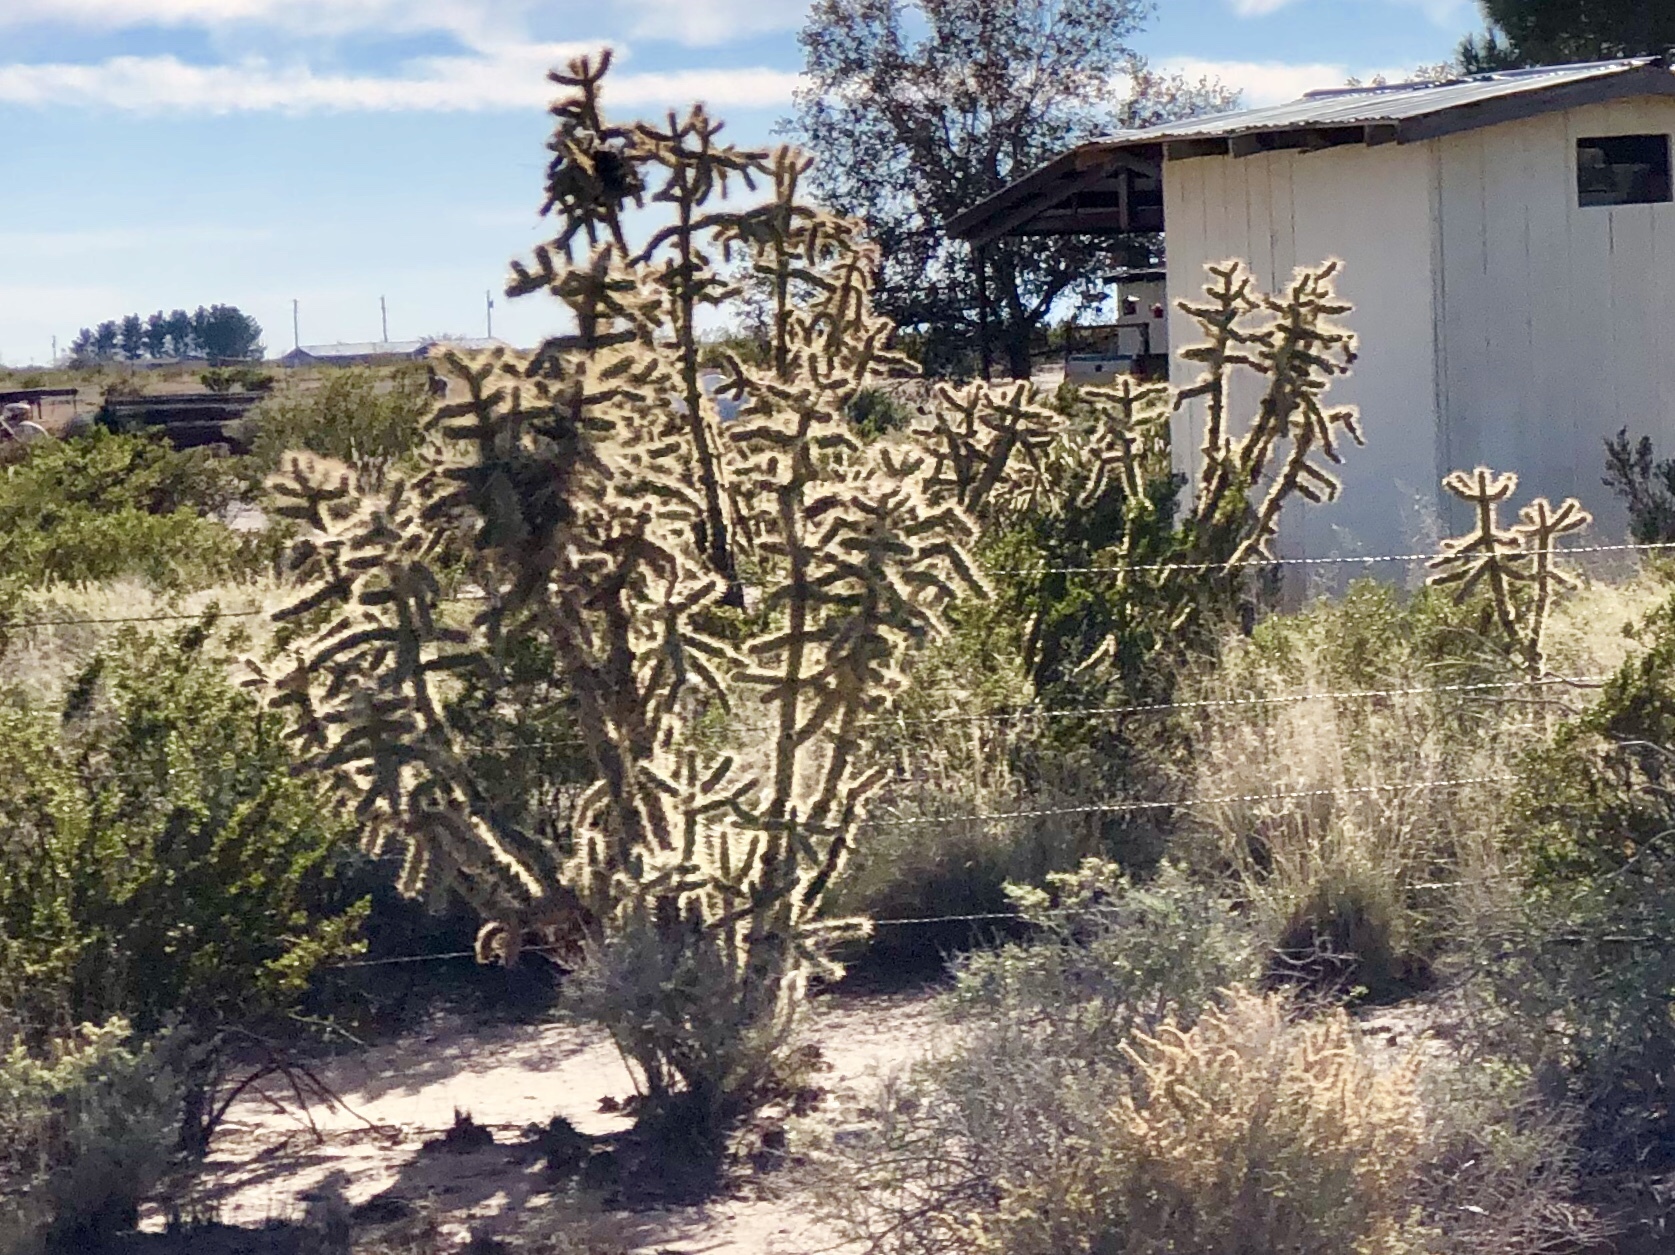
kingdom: Plantae
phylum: Tracheophyta
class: Magnoliopsida
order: Caryophyllales
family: Cactaceae
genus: Cylindropuntia
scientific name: Cylindropuntia imbricata
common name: Candelabrum cactus
